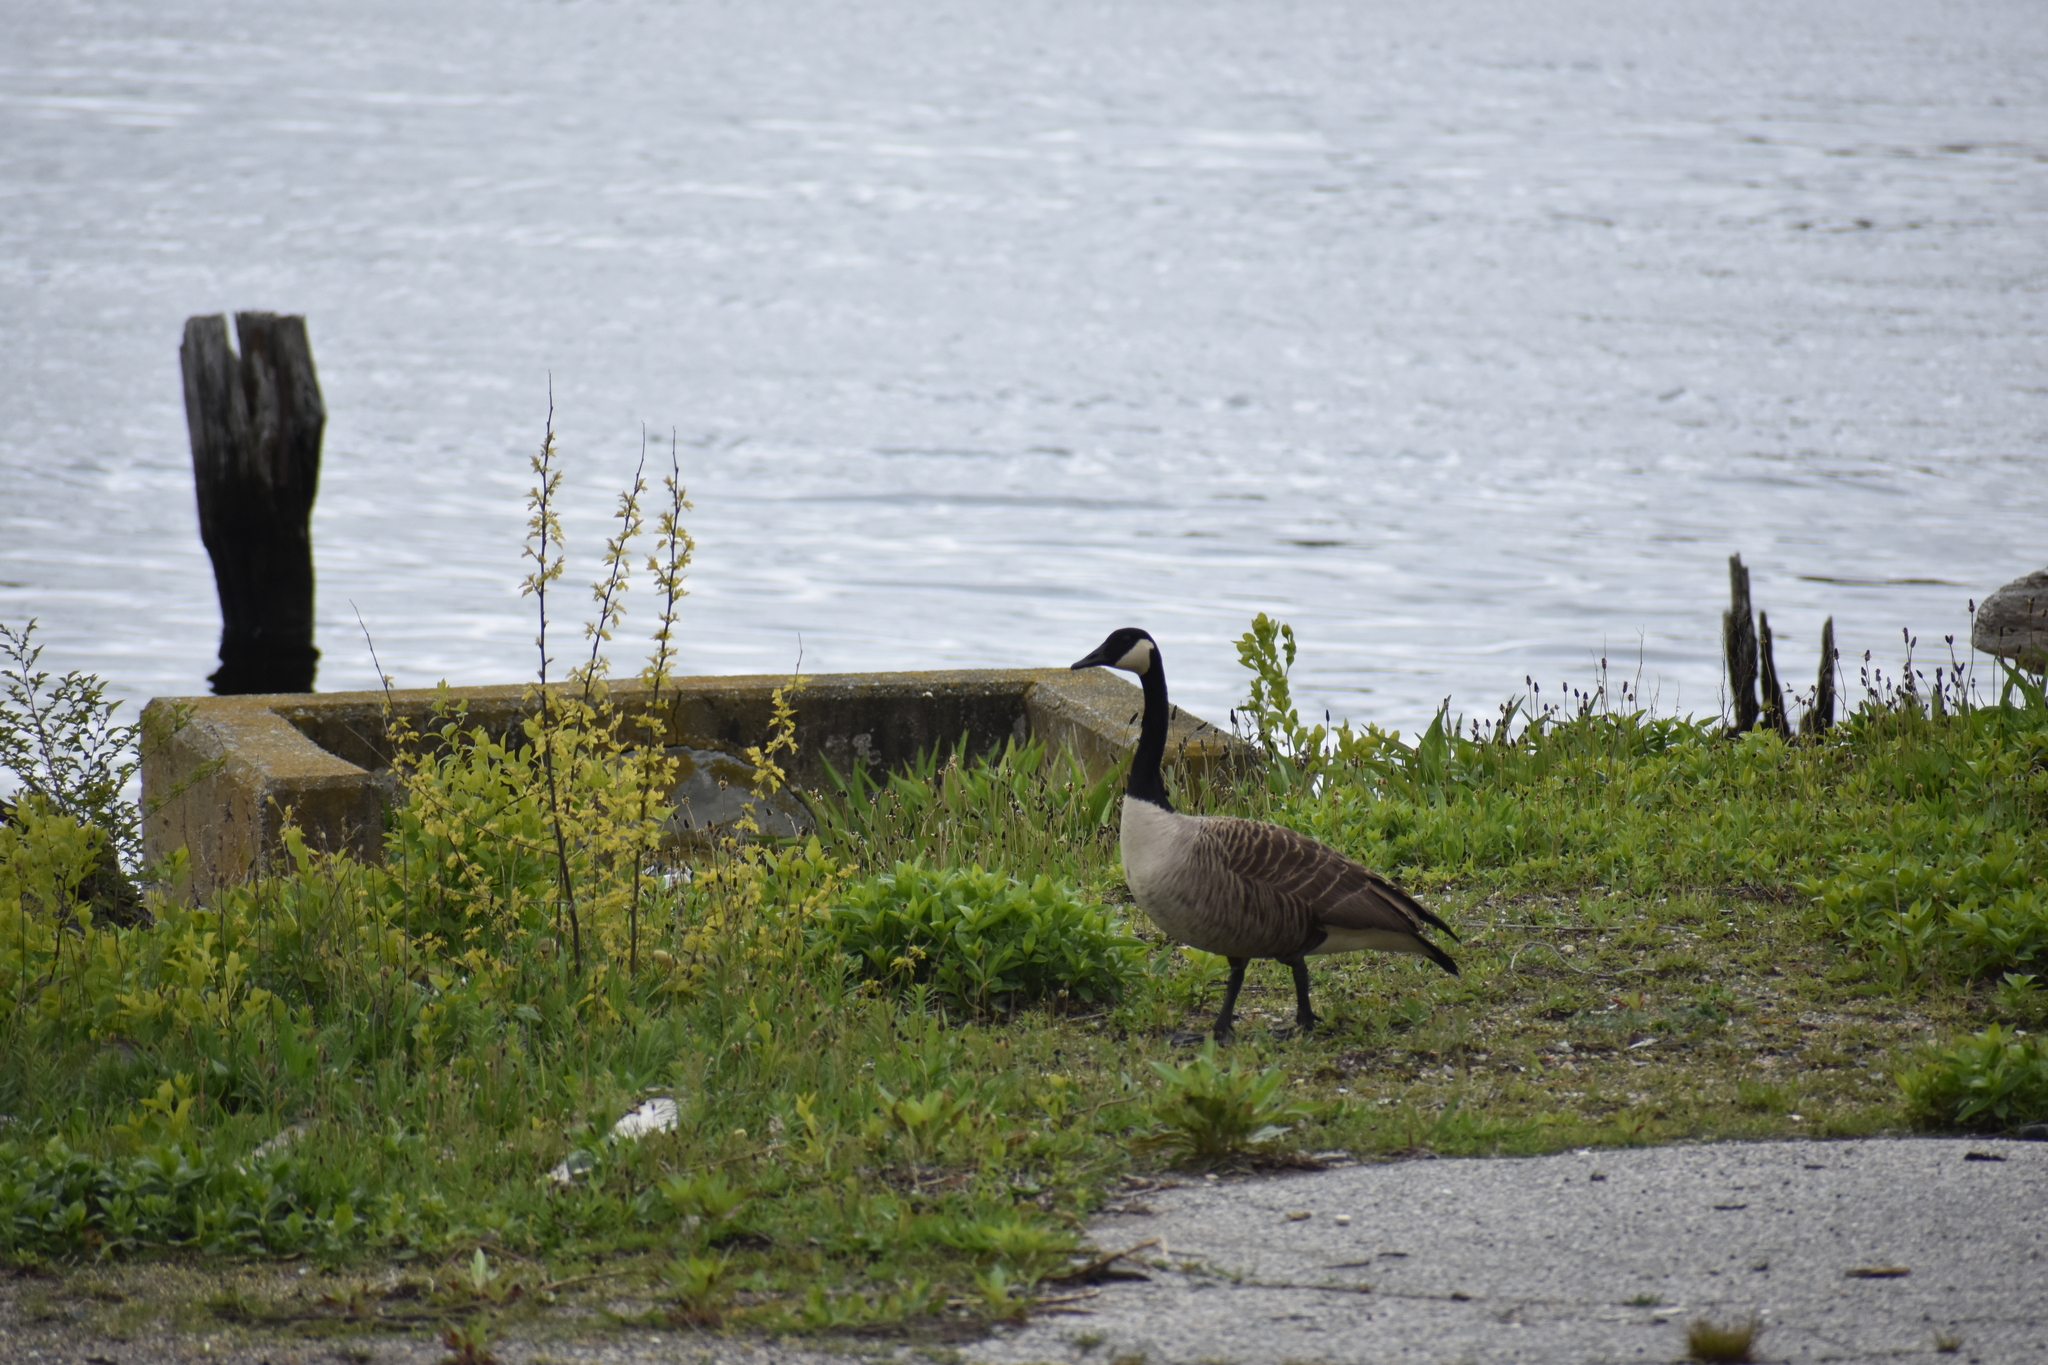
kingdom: Animalia
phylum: Chordata
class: Aves
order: Anseriformes
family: Anatidae
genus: Branta
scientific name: Branta canadensis
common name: Canada goose
